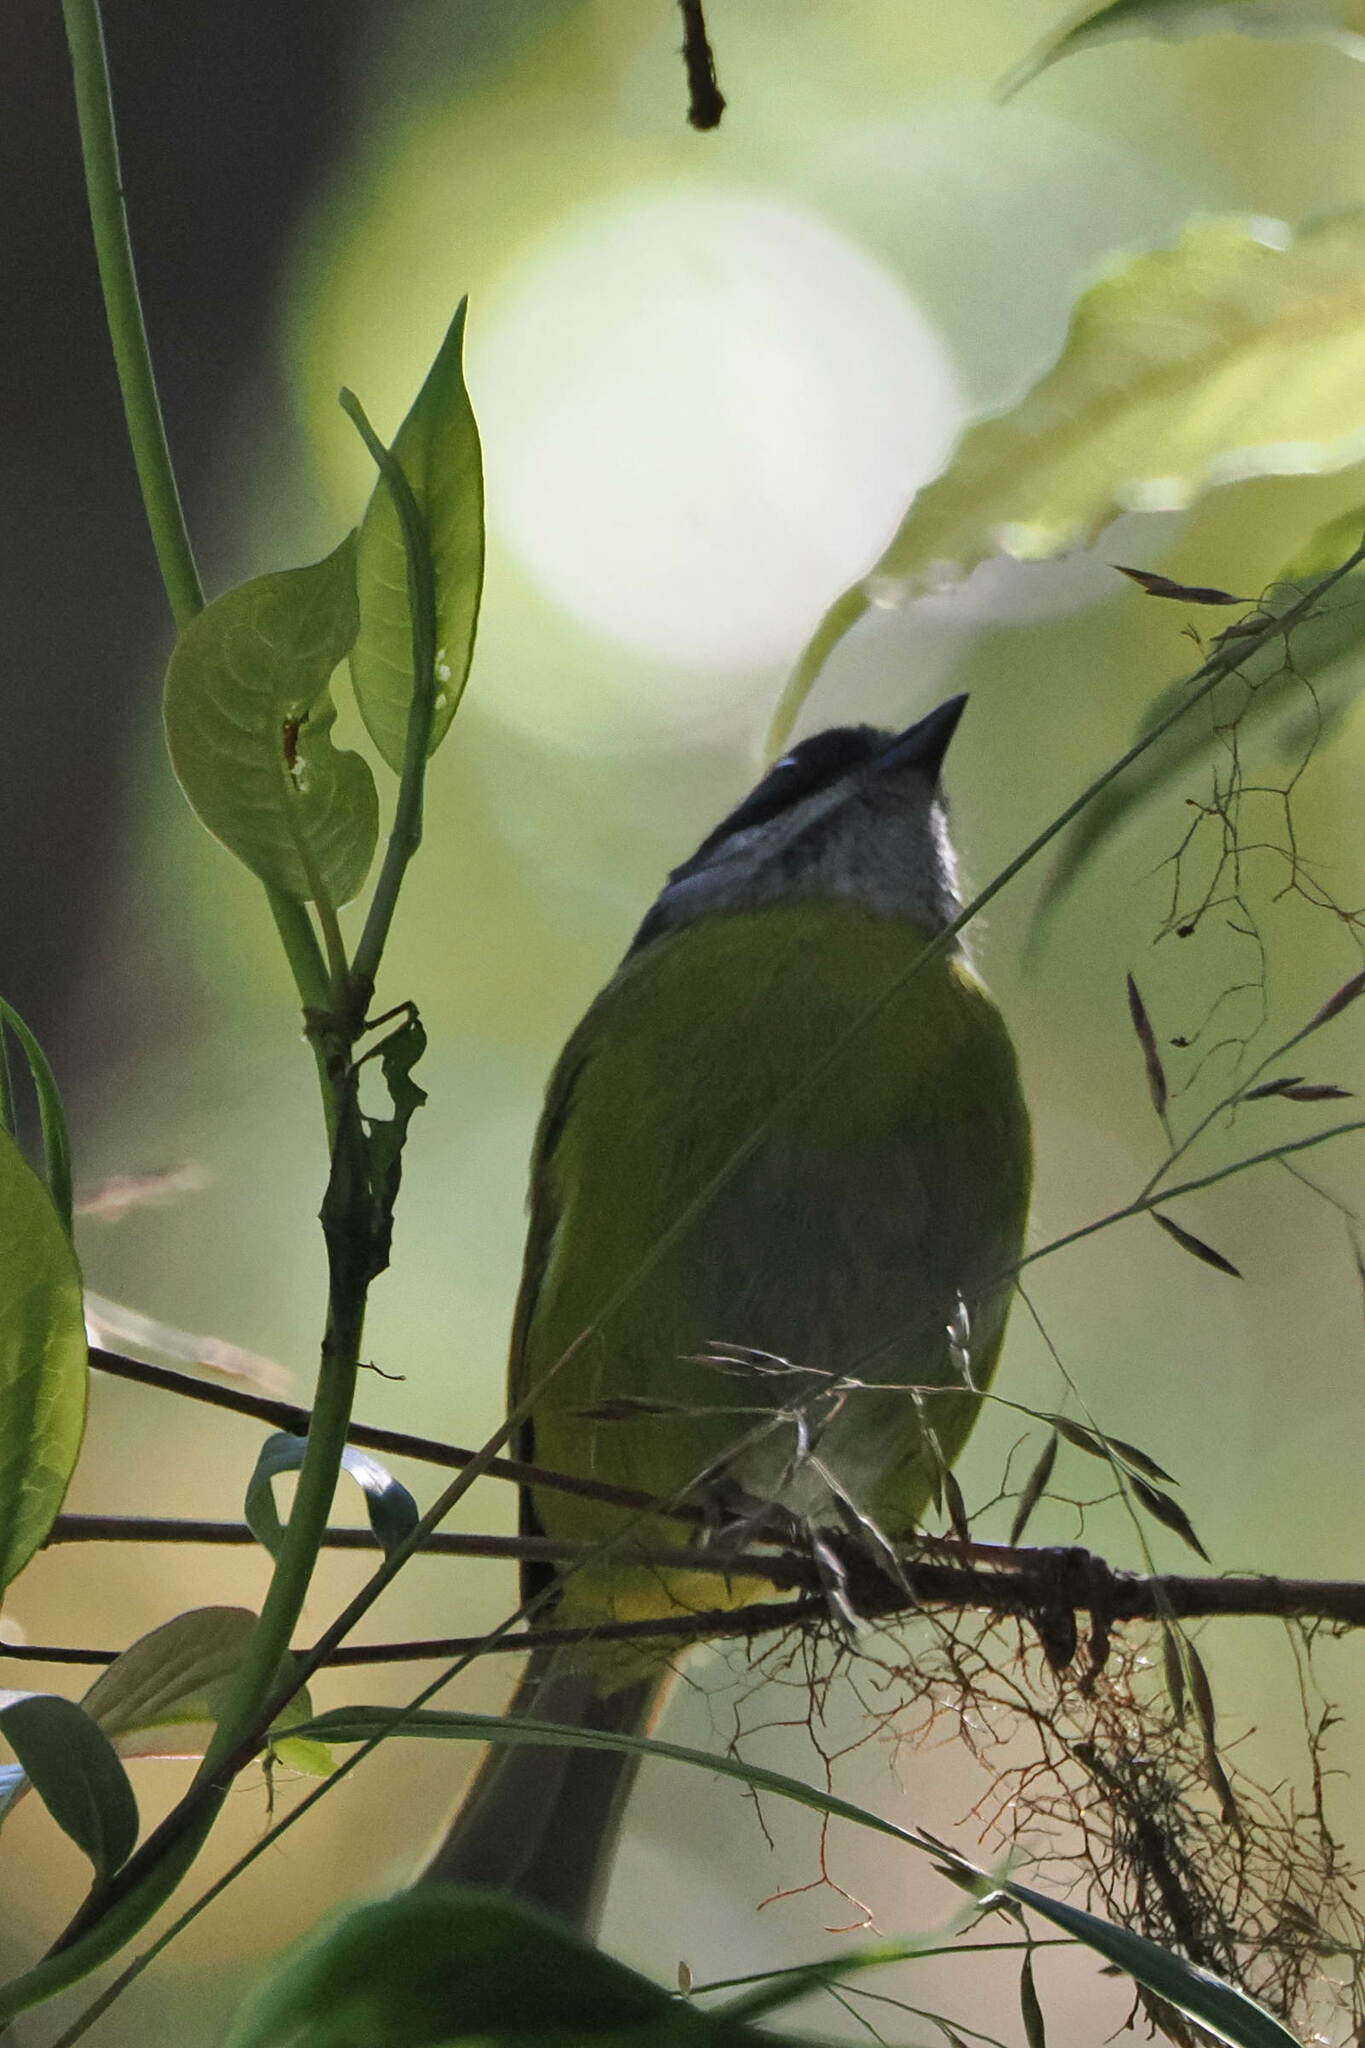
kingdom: Animalia
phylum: Chordata
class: Aves
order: Passeriformes
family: Passerellidae
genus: Chlorospingus
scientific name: Chlorospingus pileatus
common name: Sooty-capped bush-tanager
